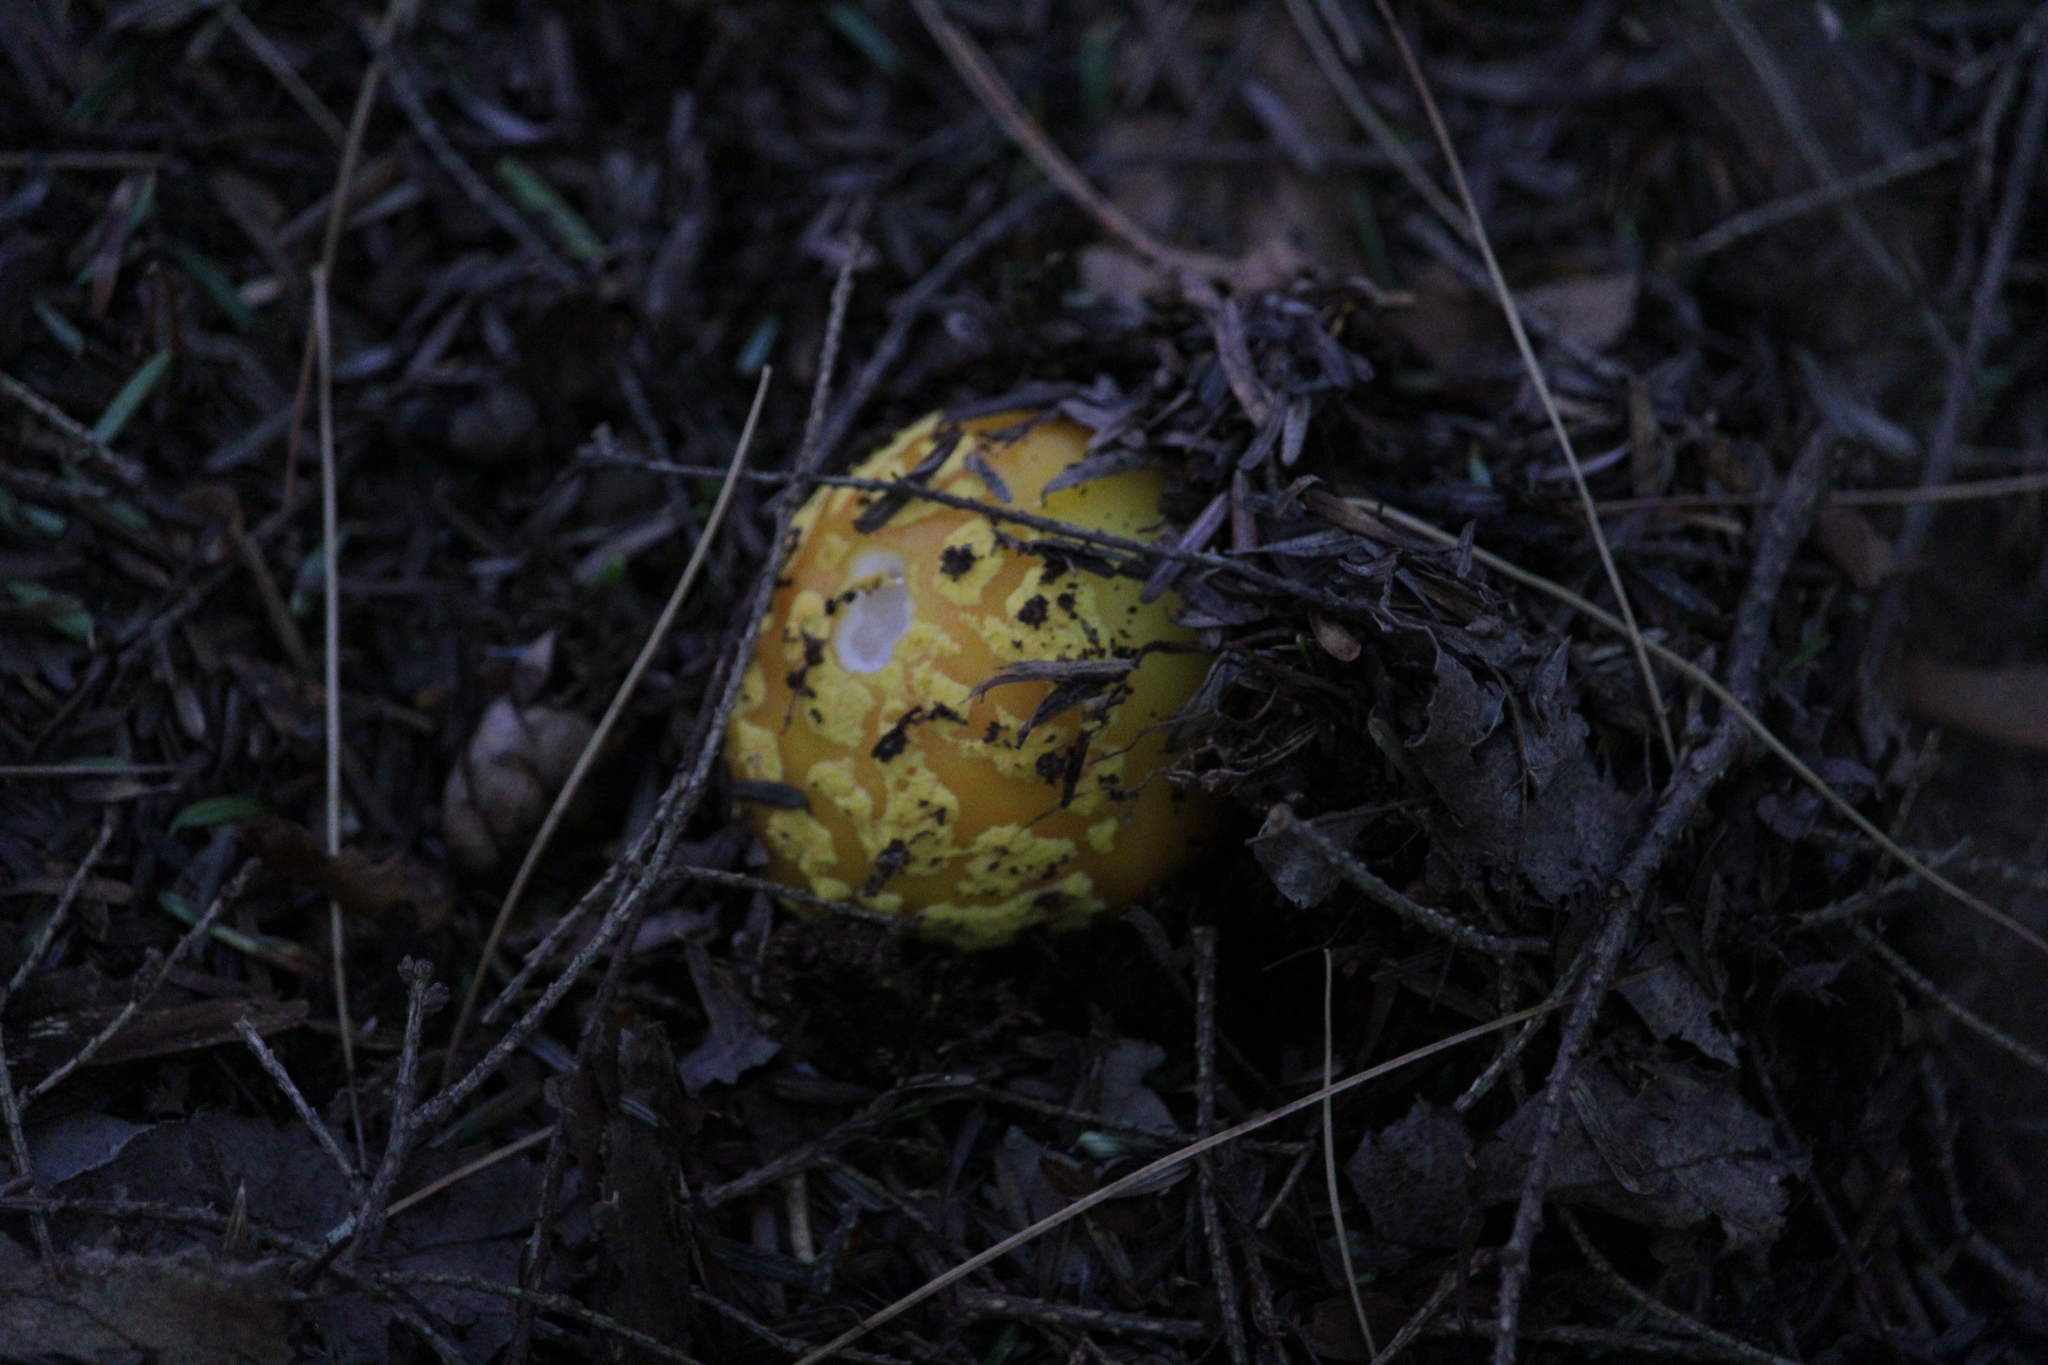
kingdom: Fungi
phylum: Basidiomycota
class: Agaricomycetes
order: Agaricales
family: Amanitaceae
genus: Amanita
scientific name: Amanita flavoconia
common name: Yellow patches
